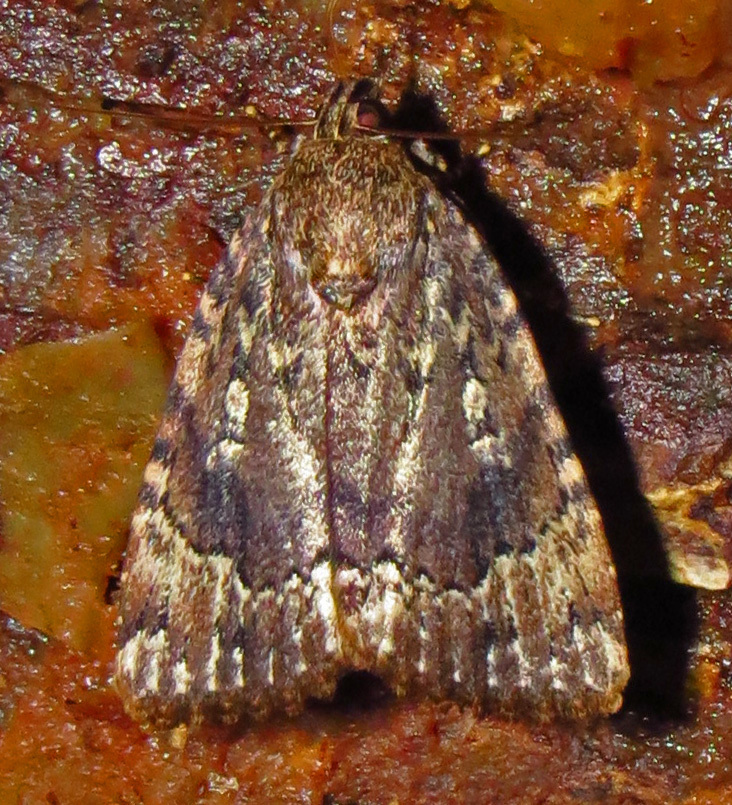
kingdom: Animalia
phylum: Arthropoda
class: Insecta
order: Lepidoptera
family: Noctuidae
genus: Amphipyra
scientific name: Amphipyra pyramidoides
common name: American copper underwing
